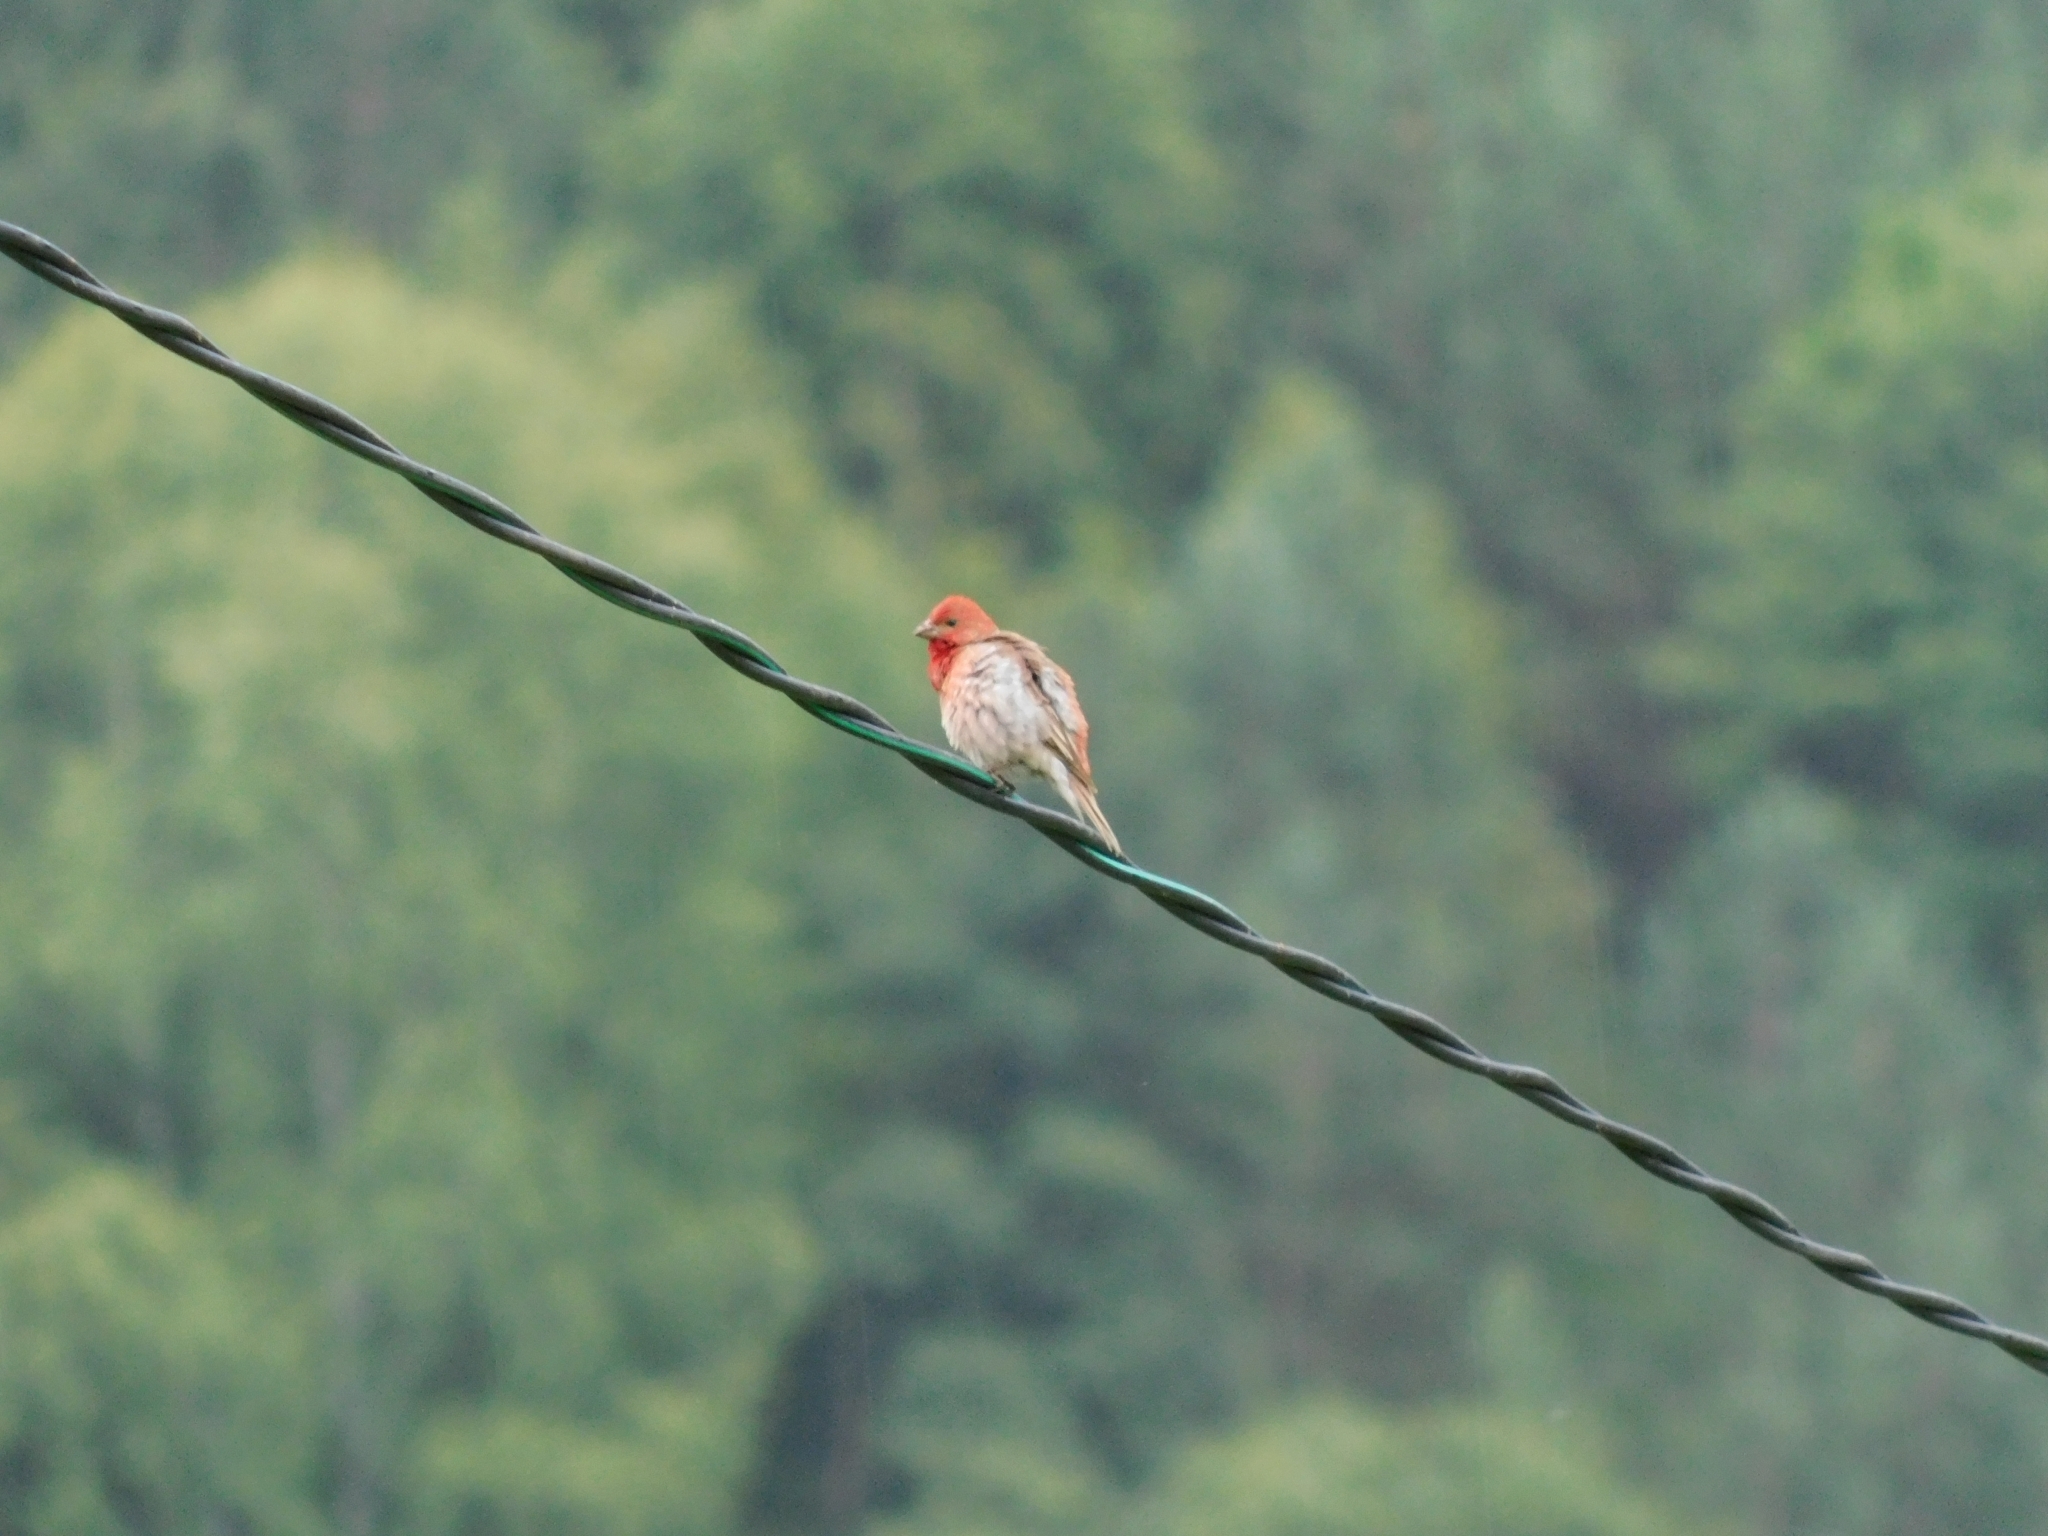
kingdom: Animalia
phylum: Chordata
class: Aves
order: Passeriformes
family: Fringillidae
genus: Carpodacus
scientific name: Carpodacus erythrinus
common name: Common rosefinch
